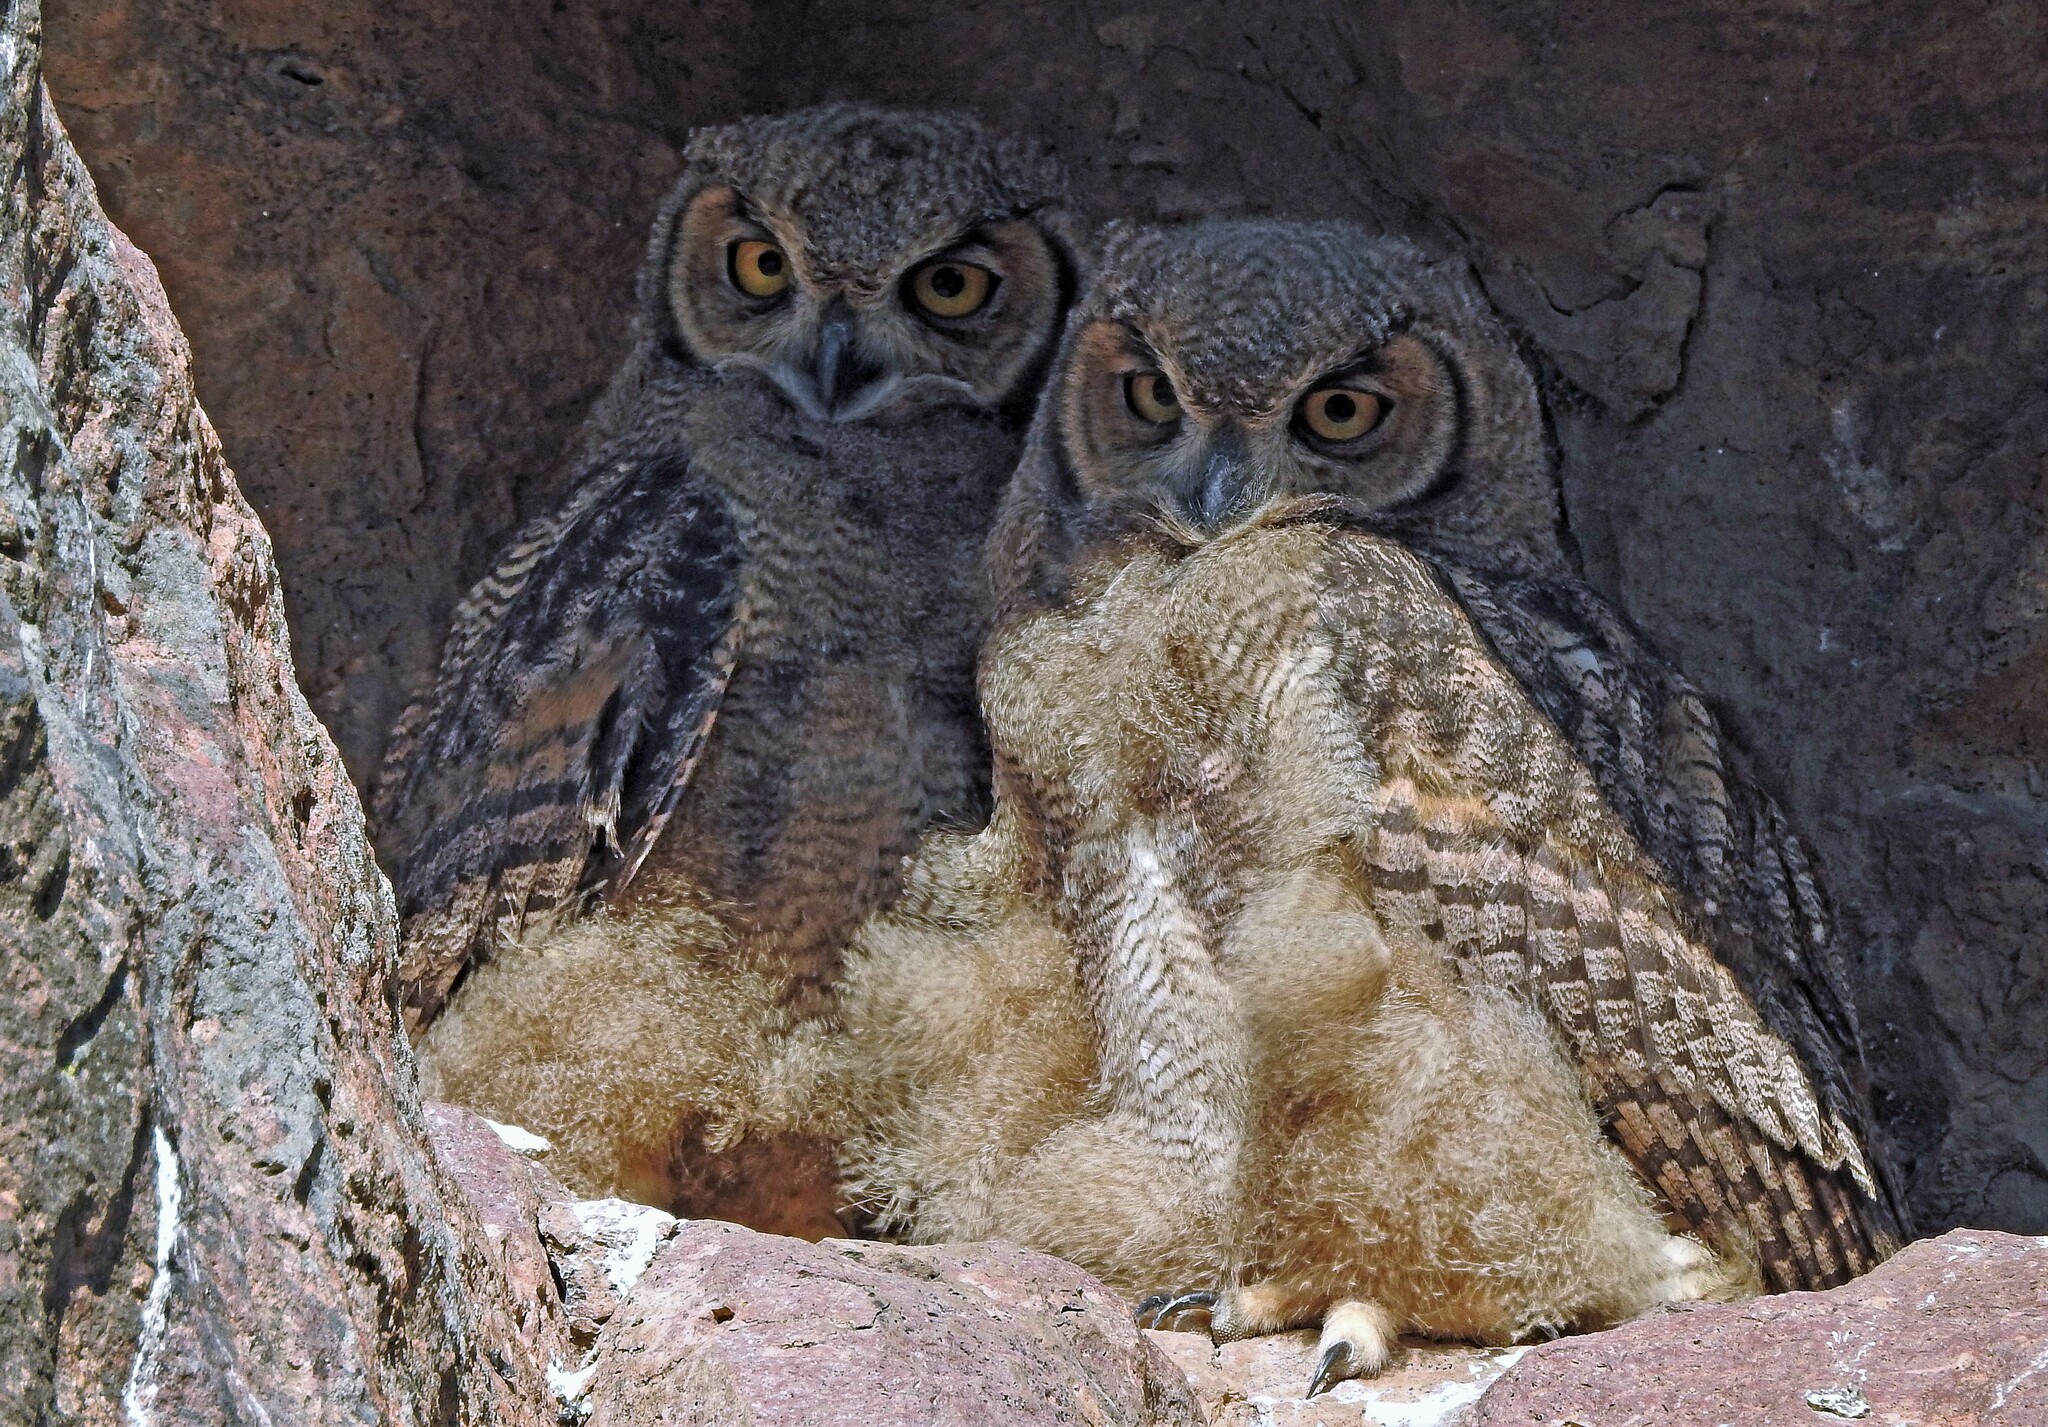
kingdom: Animalia
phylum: Chordata
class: Aves
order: Strigiformes
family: Strigidae
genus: Bubo
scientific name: Bubo magellanicus
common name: Lesser horned owl
